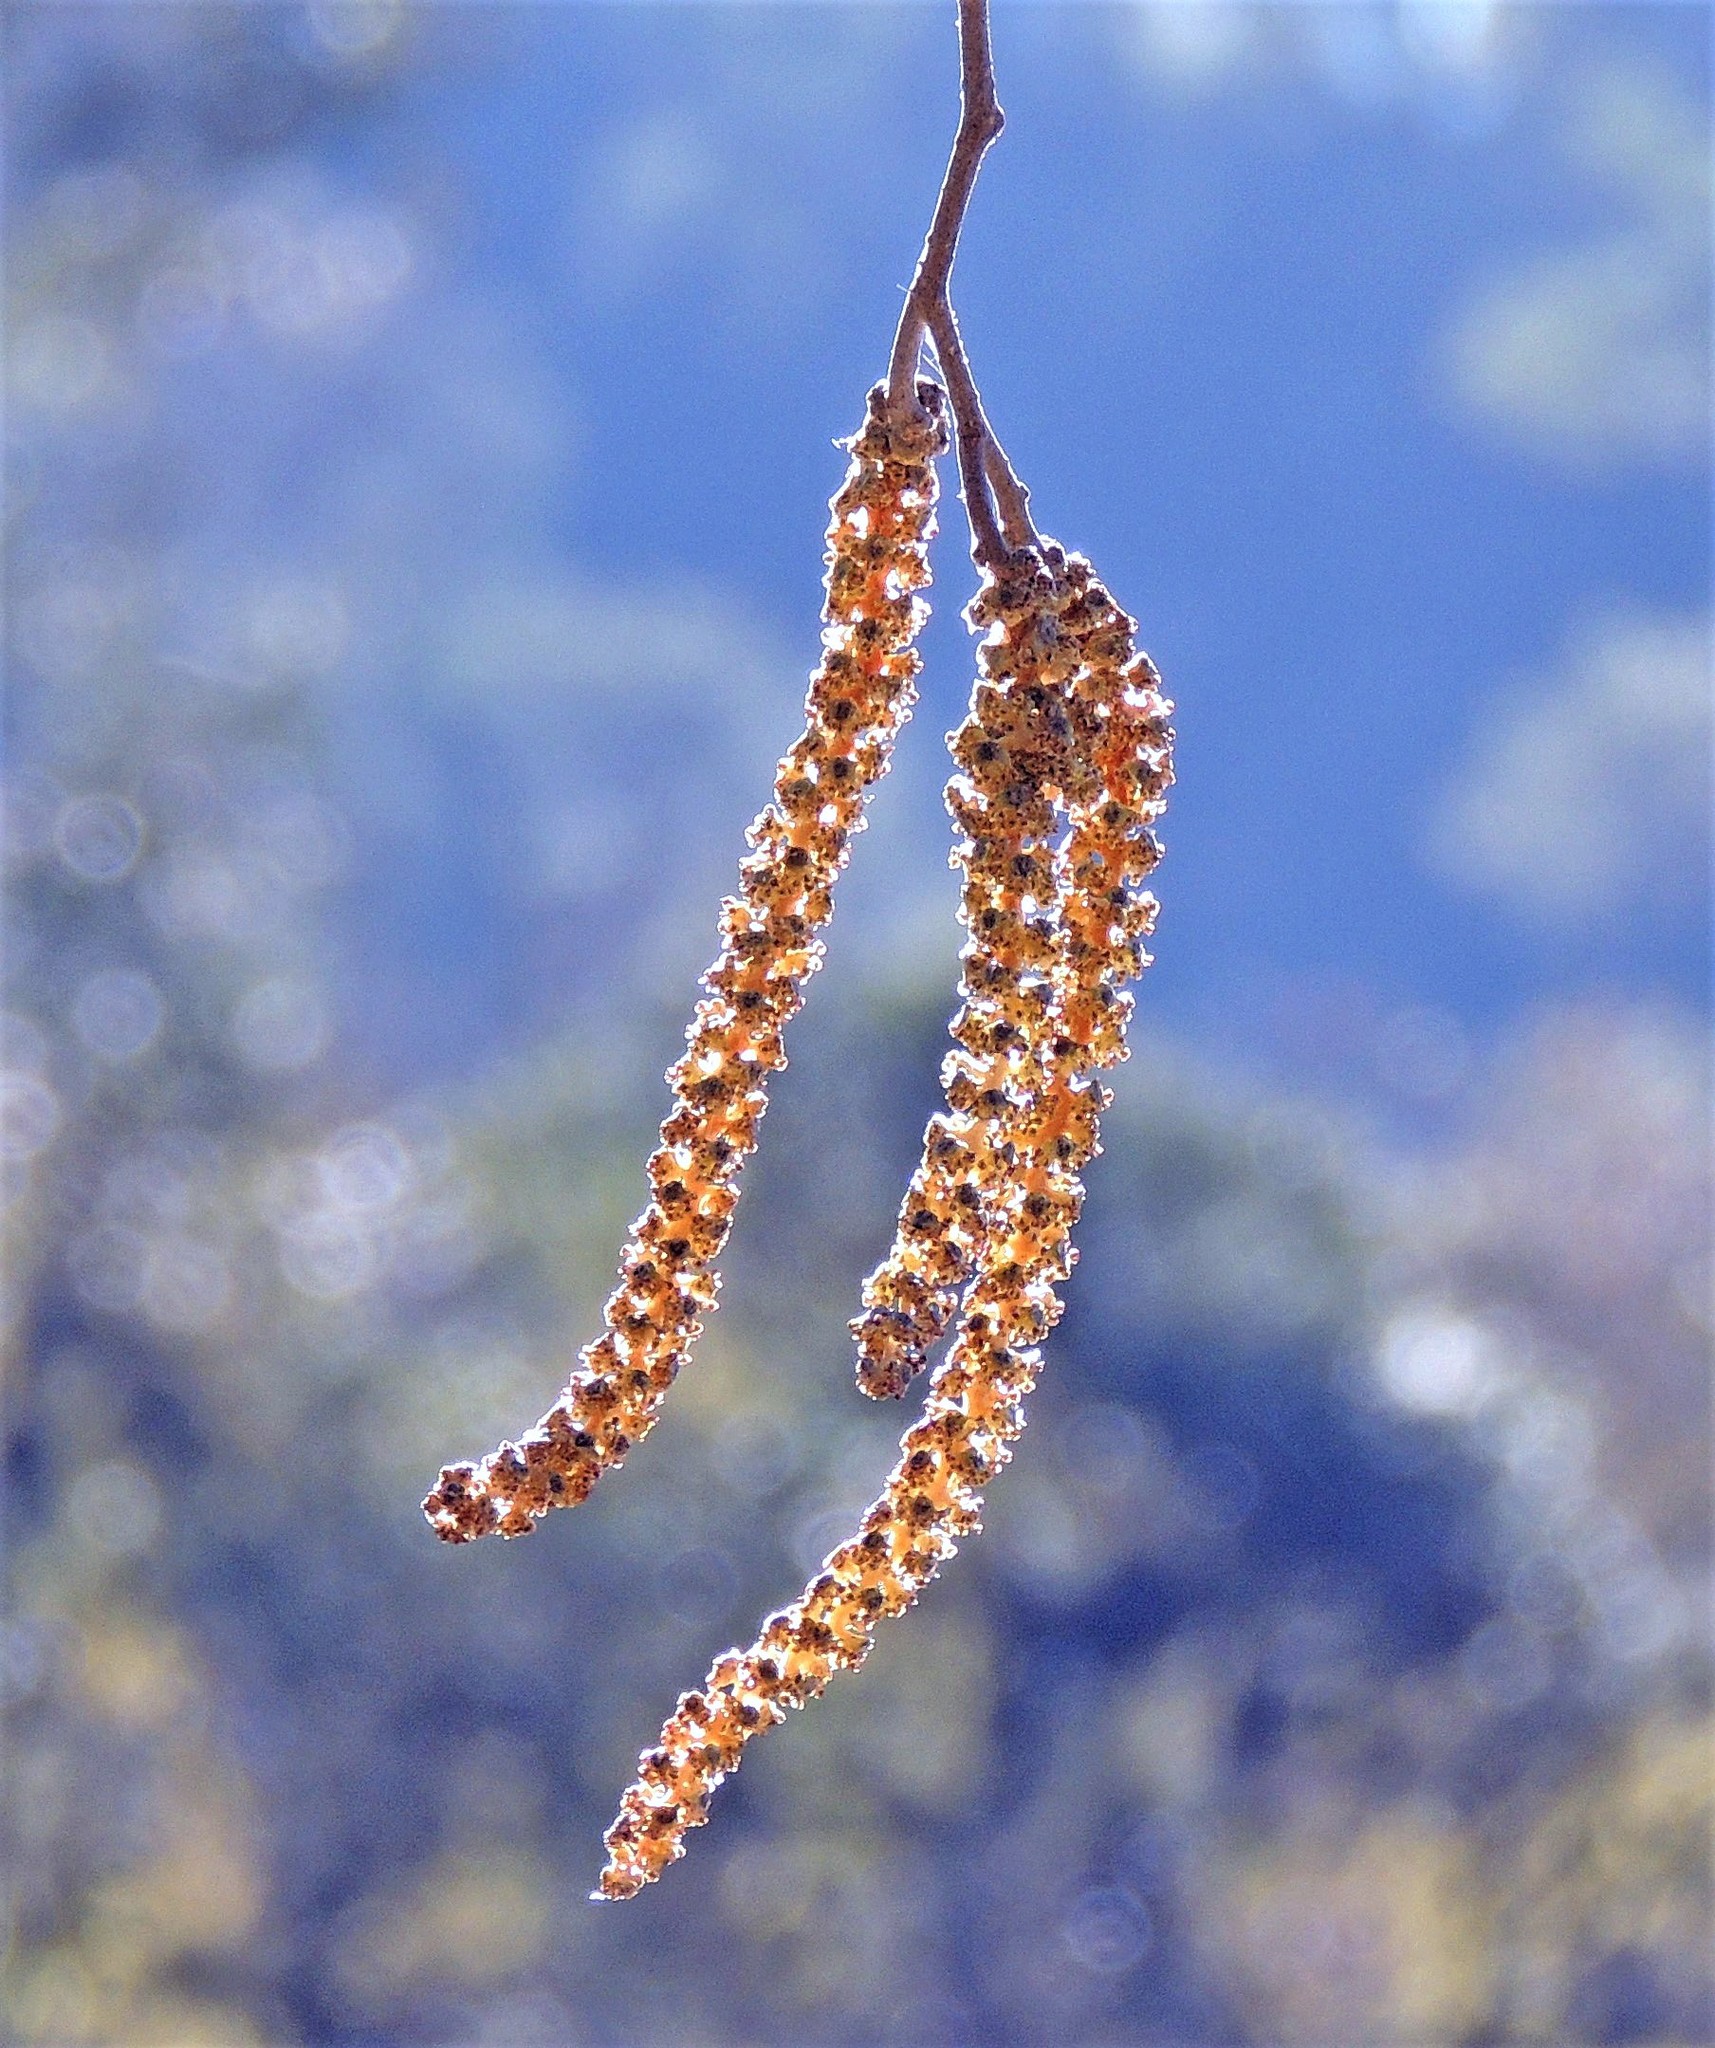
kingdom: Plantae
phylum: Tracheophyta
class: Magnoliopsida
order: Fagales
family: Betulaceae
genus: Alnus
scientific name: Alnus acuminata
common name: Alder
